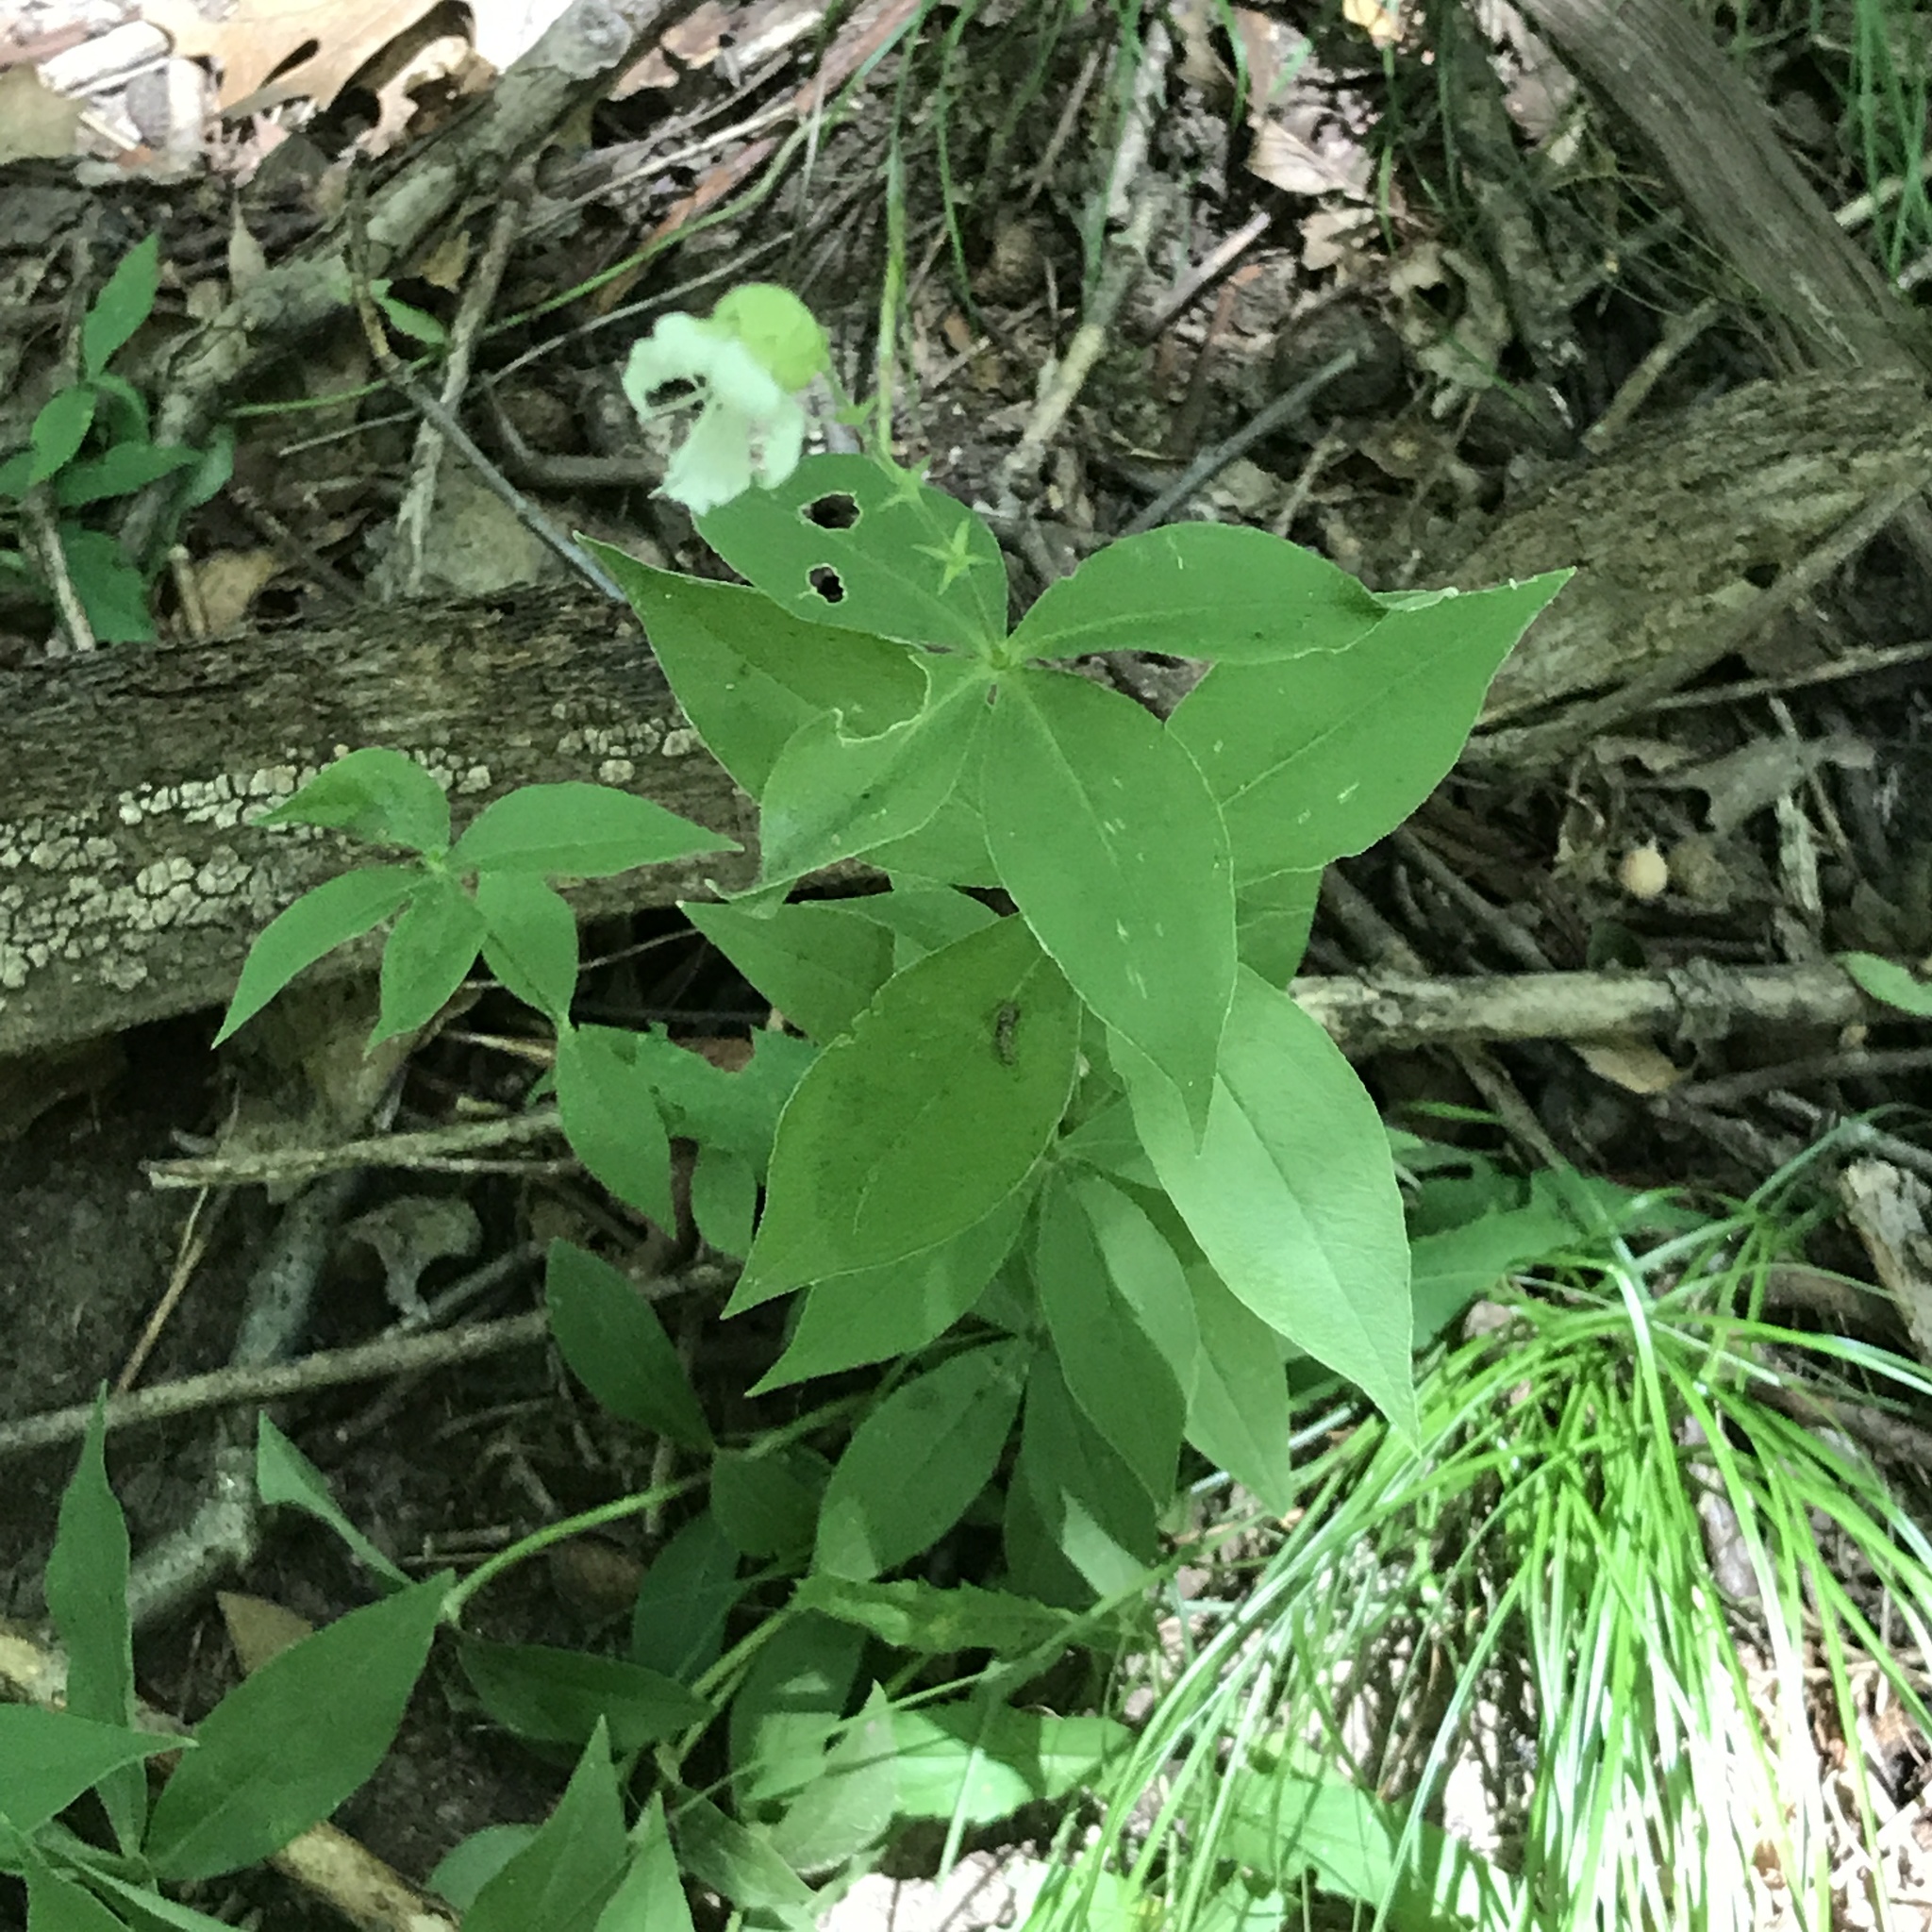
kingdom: Plantae
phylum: Tracheophyta
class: Magnoliopsida
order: Caryophyllales
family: Caryophyllaceae
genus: Silene
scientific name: Silene stellata
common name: Starry campion
